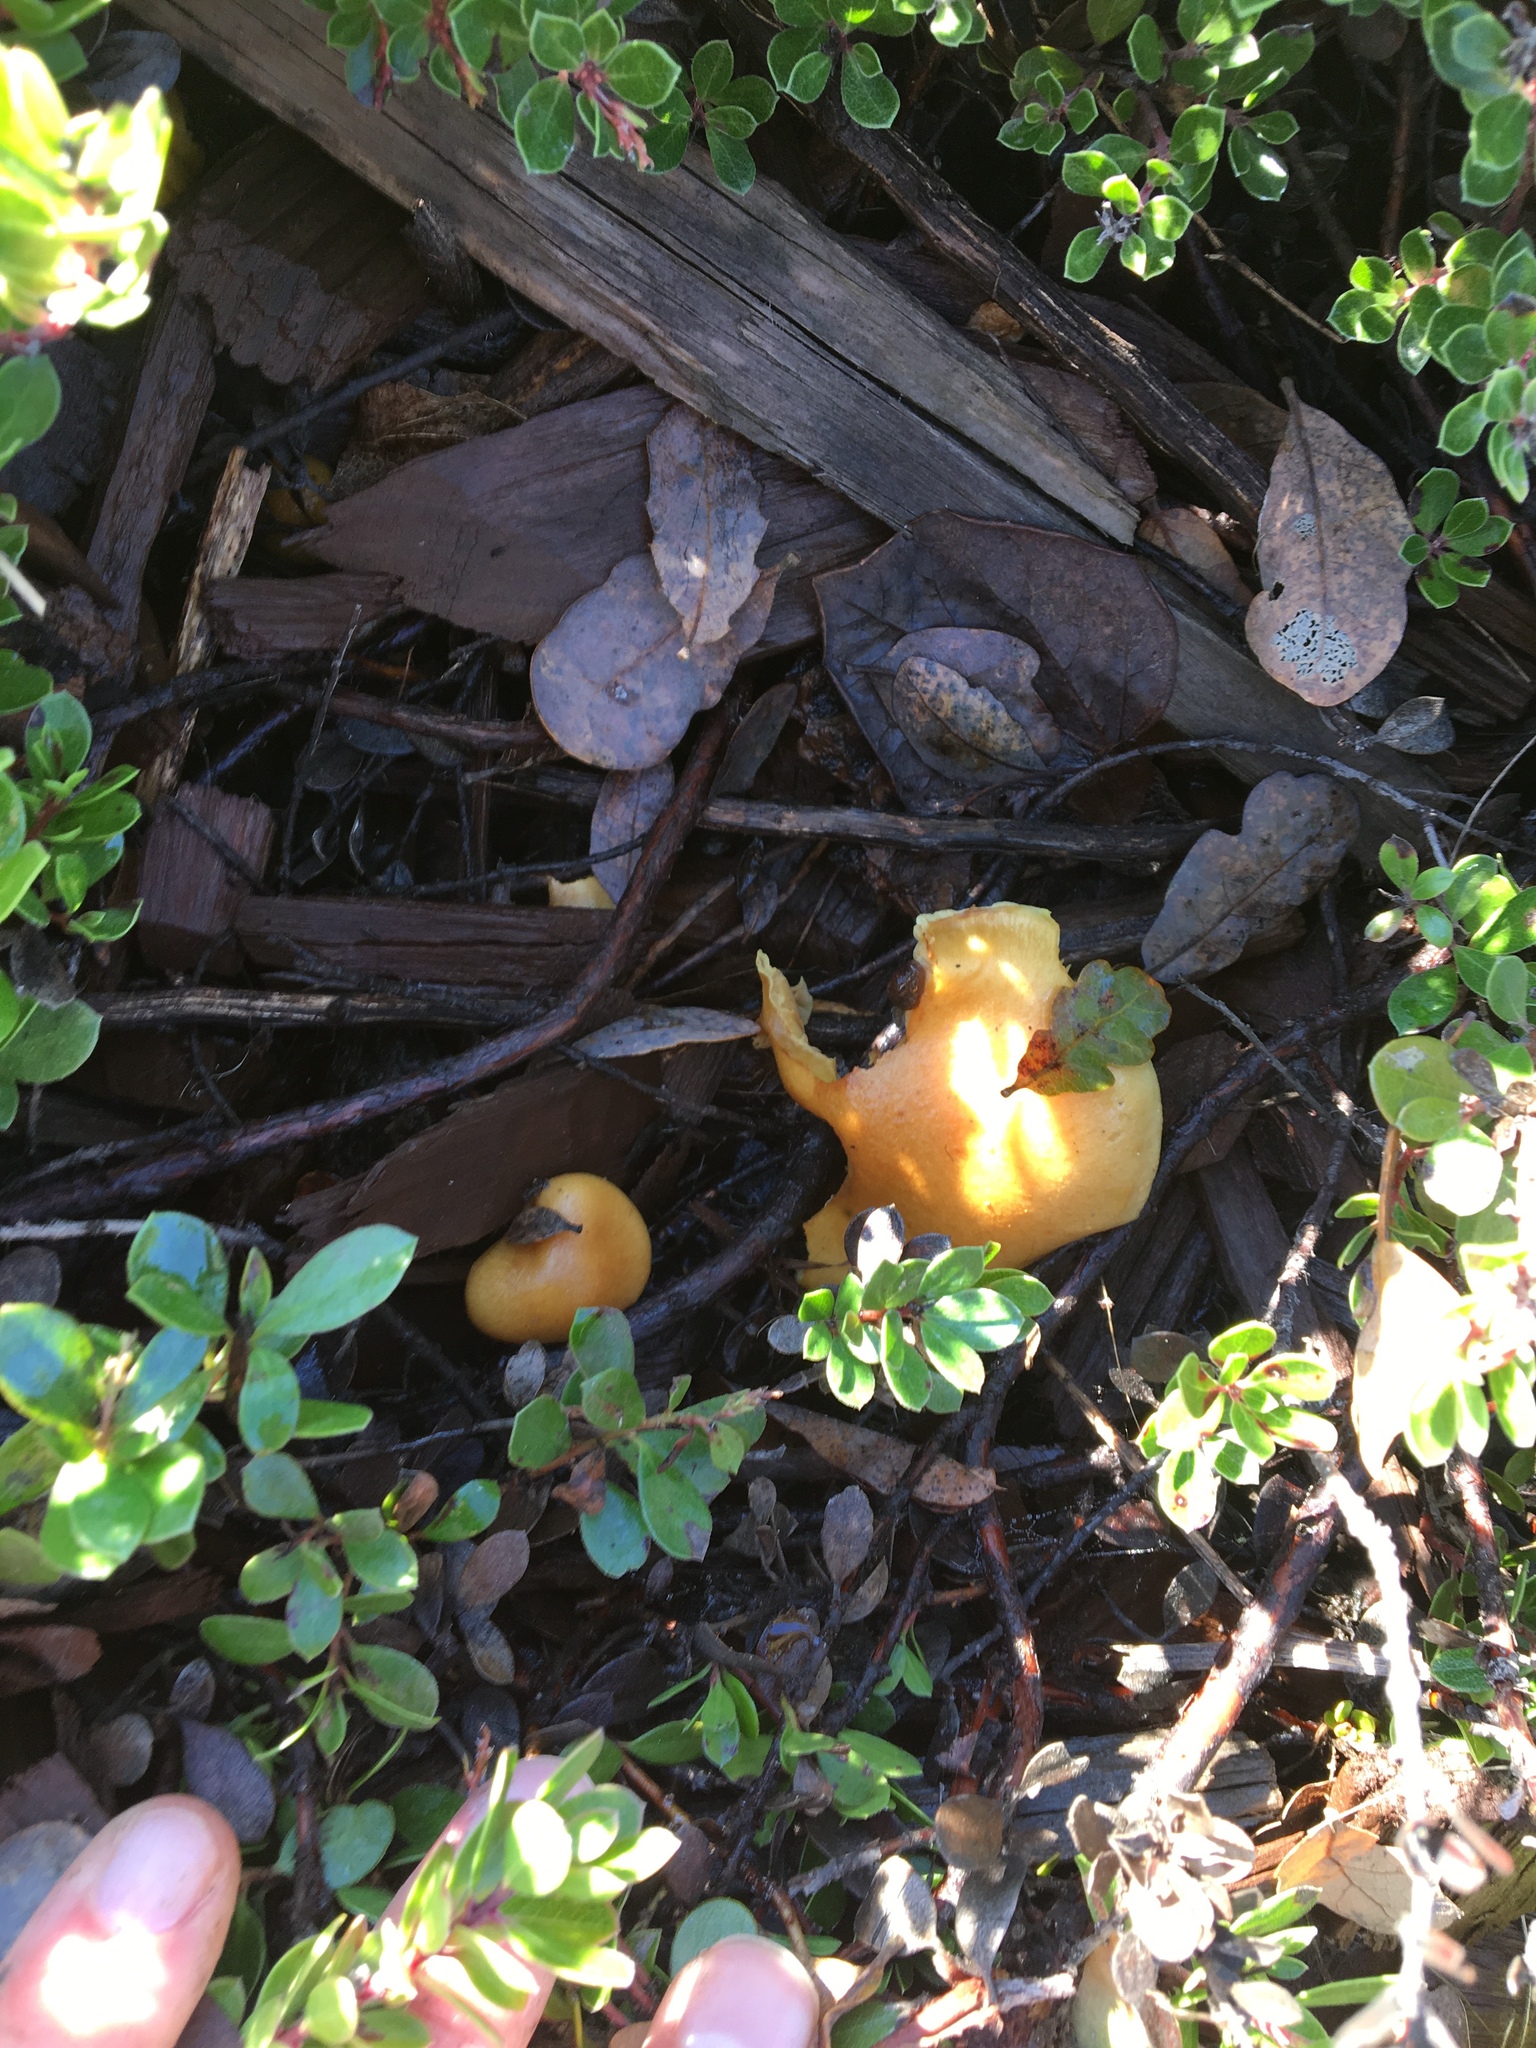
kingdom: Fungi
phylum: Basidiomycota
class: Agaricomycetes
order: Agaricales
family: Hymenogastraceae
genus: Gymnopilus
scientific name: Gymnopilus sapineus
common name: Scaly rustgill
